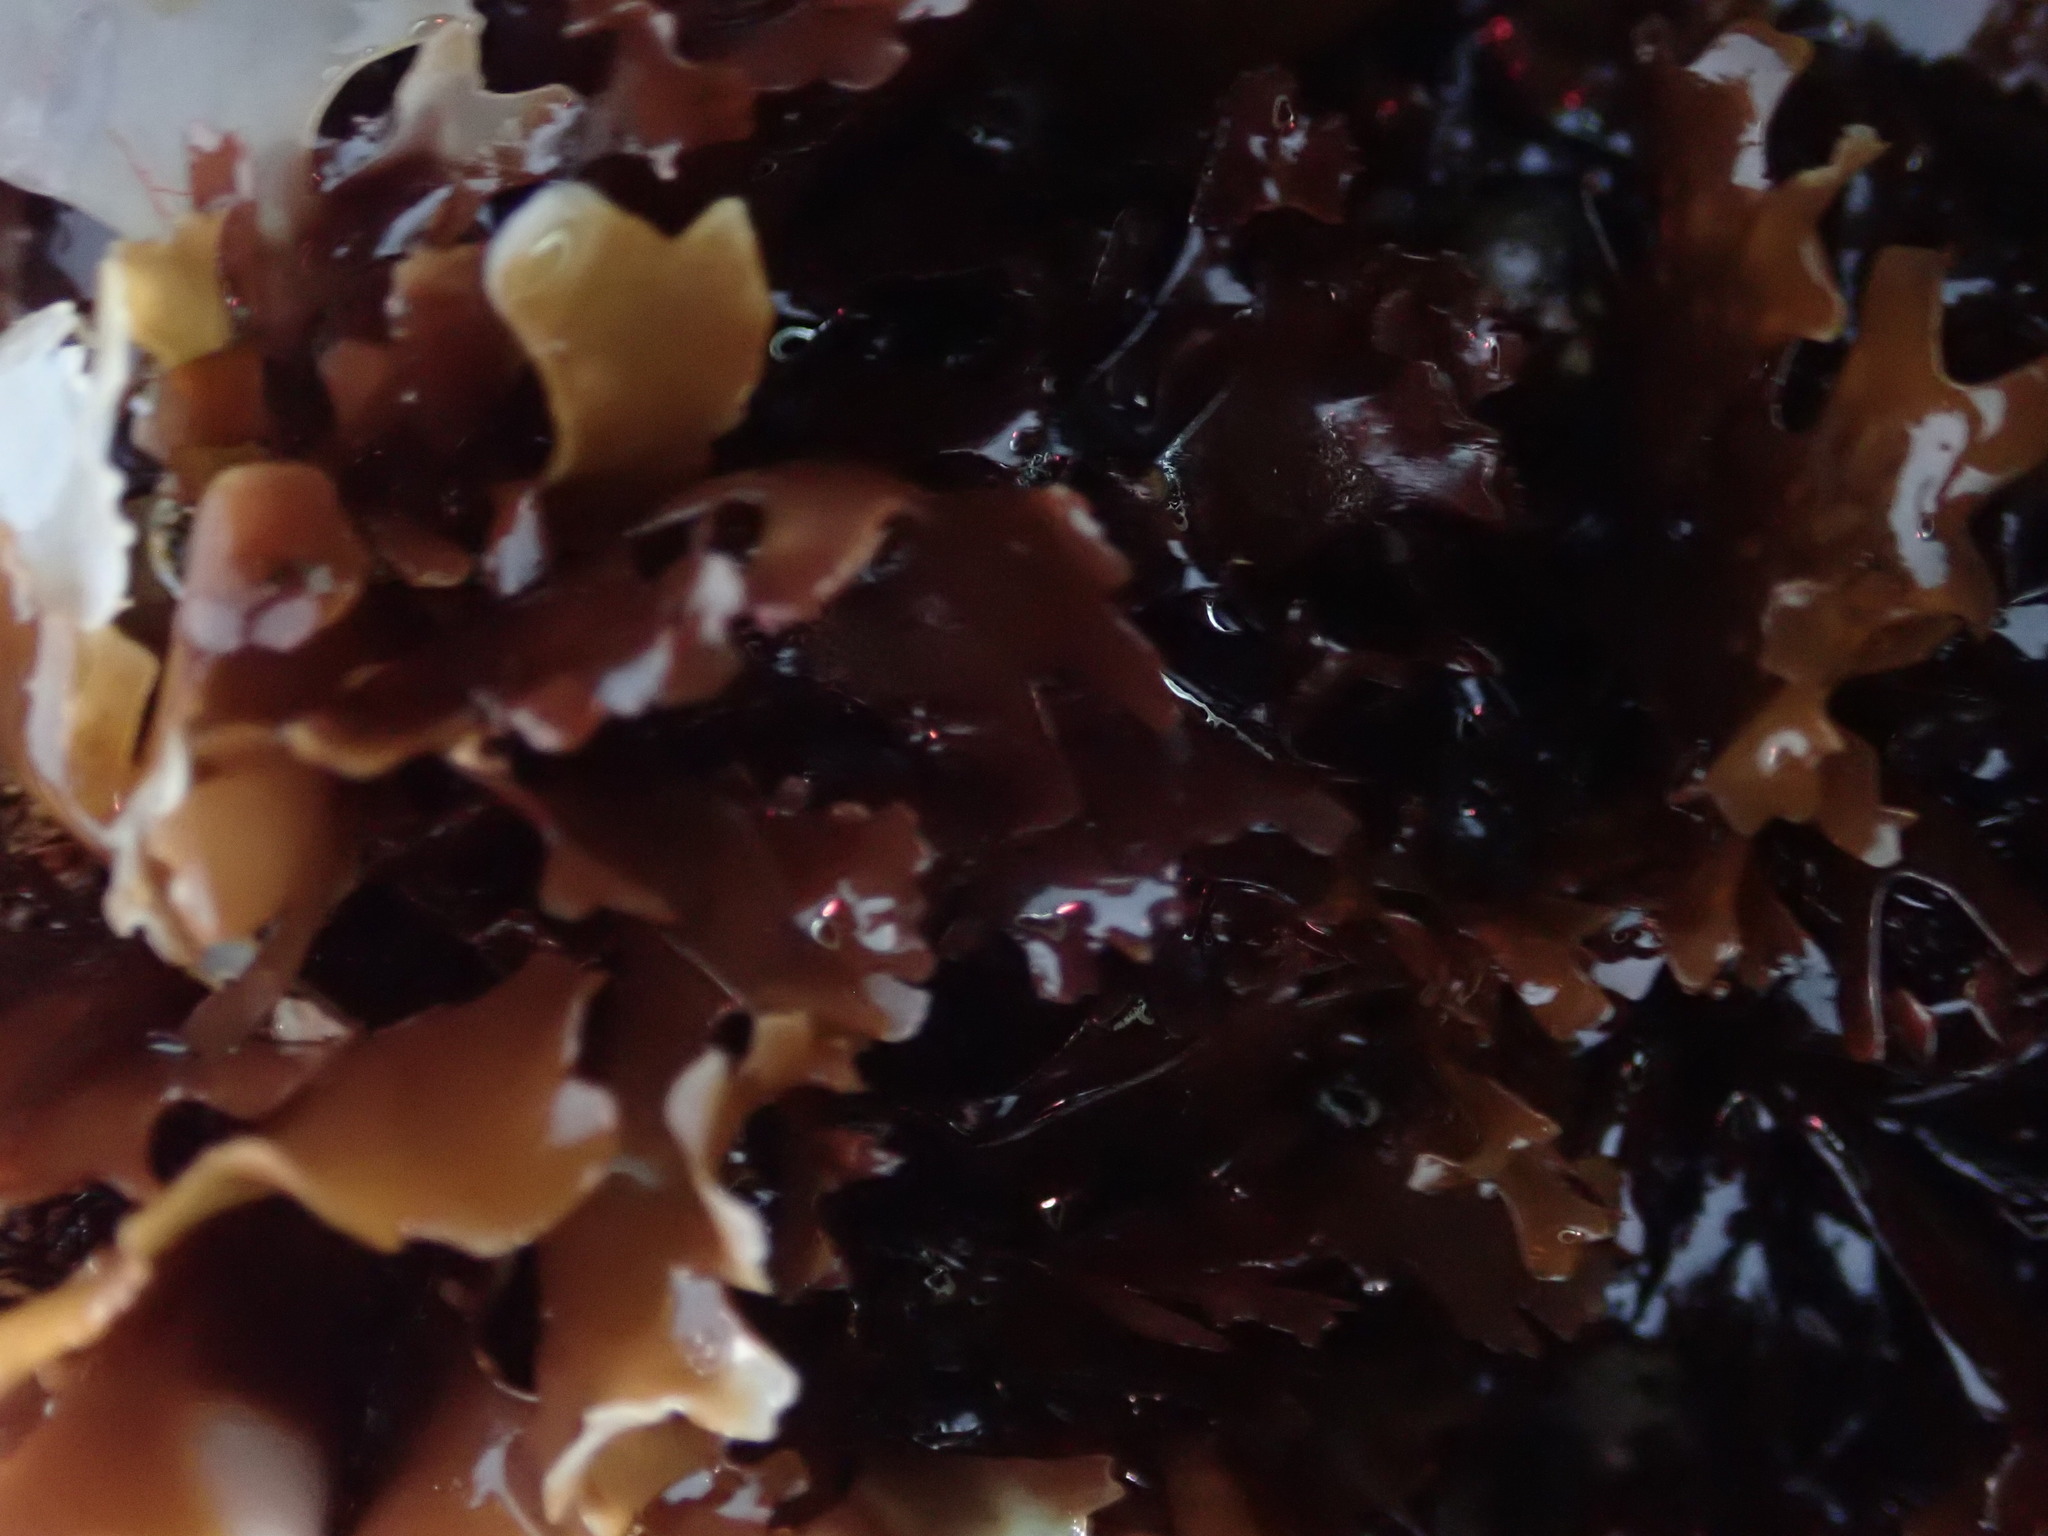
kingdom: Plantae
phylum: Rhodophyta
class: Florideophyceae
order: Gigartinales
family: Gigartinaceae
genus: Chondrus
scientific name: Chondrus crispus
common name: Carrageen
